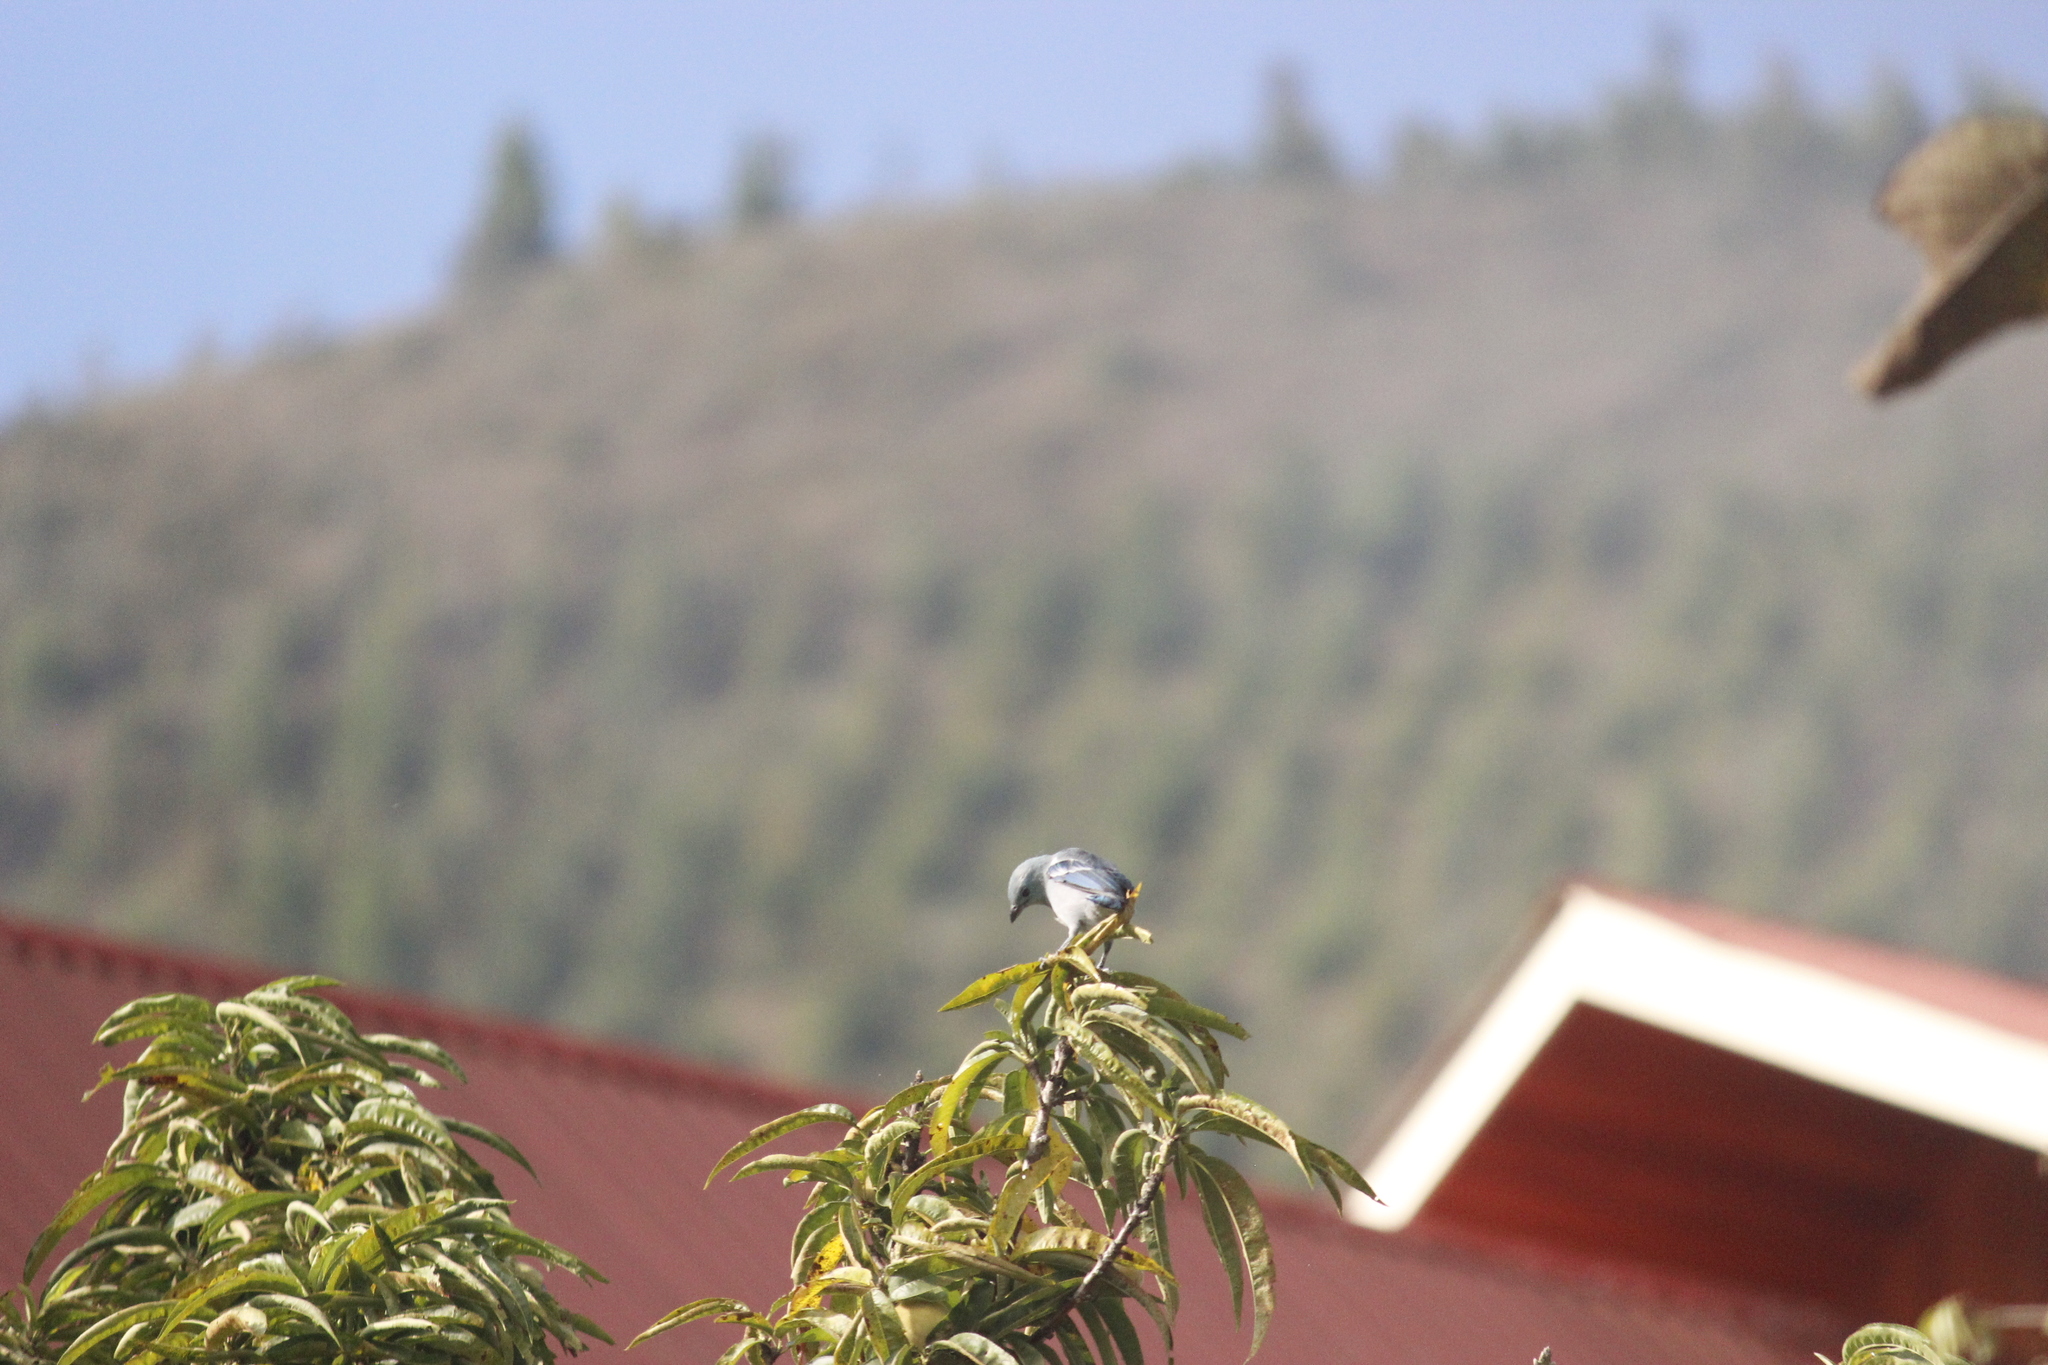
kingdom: Animalia
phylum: Chordata
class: Aves
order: Passeriformes
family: Thraupidae
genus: Thraupis
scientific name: Thraupis episcopus
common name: Blue-grey tanager
